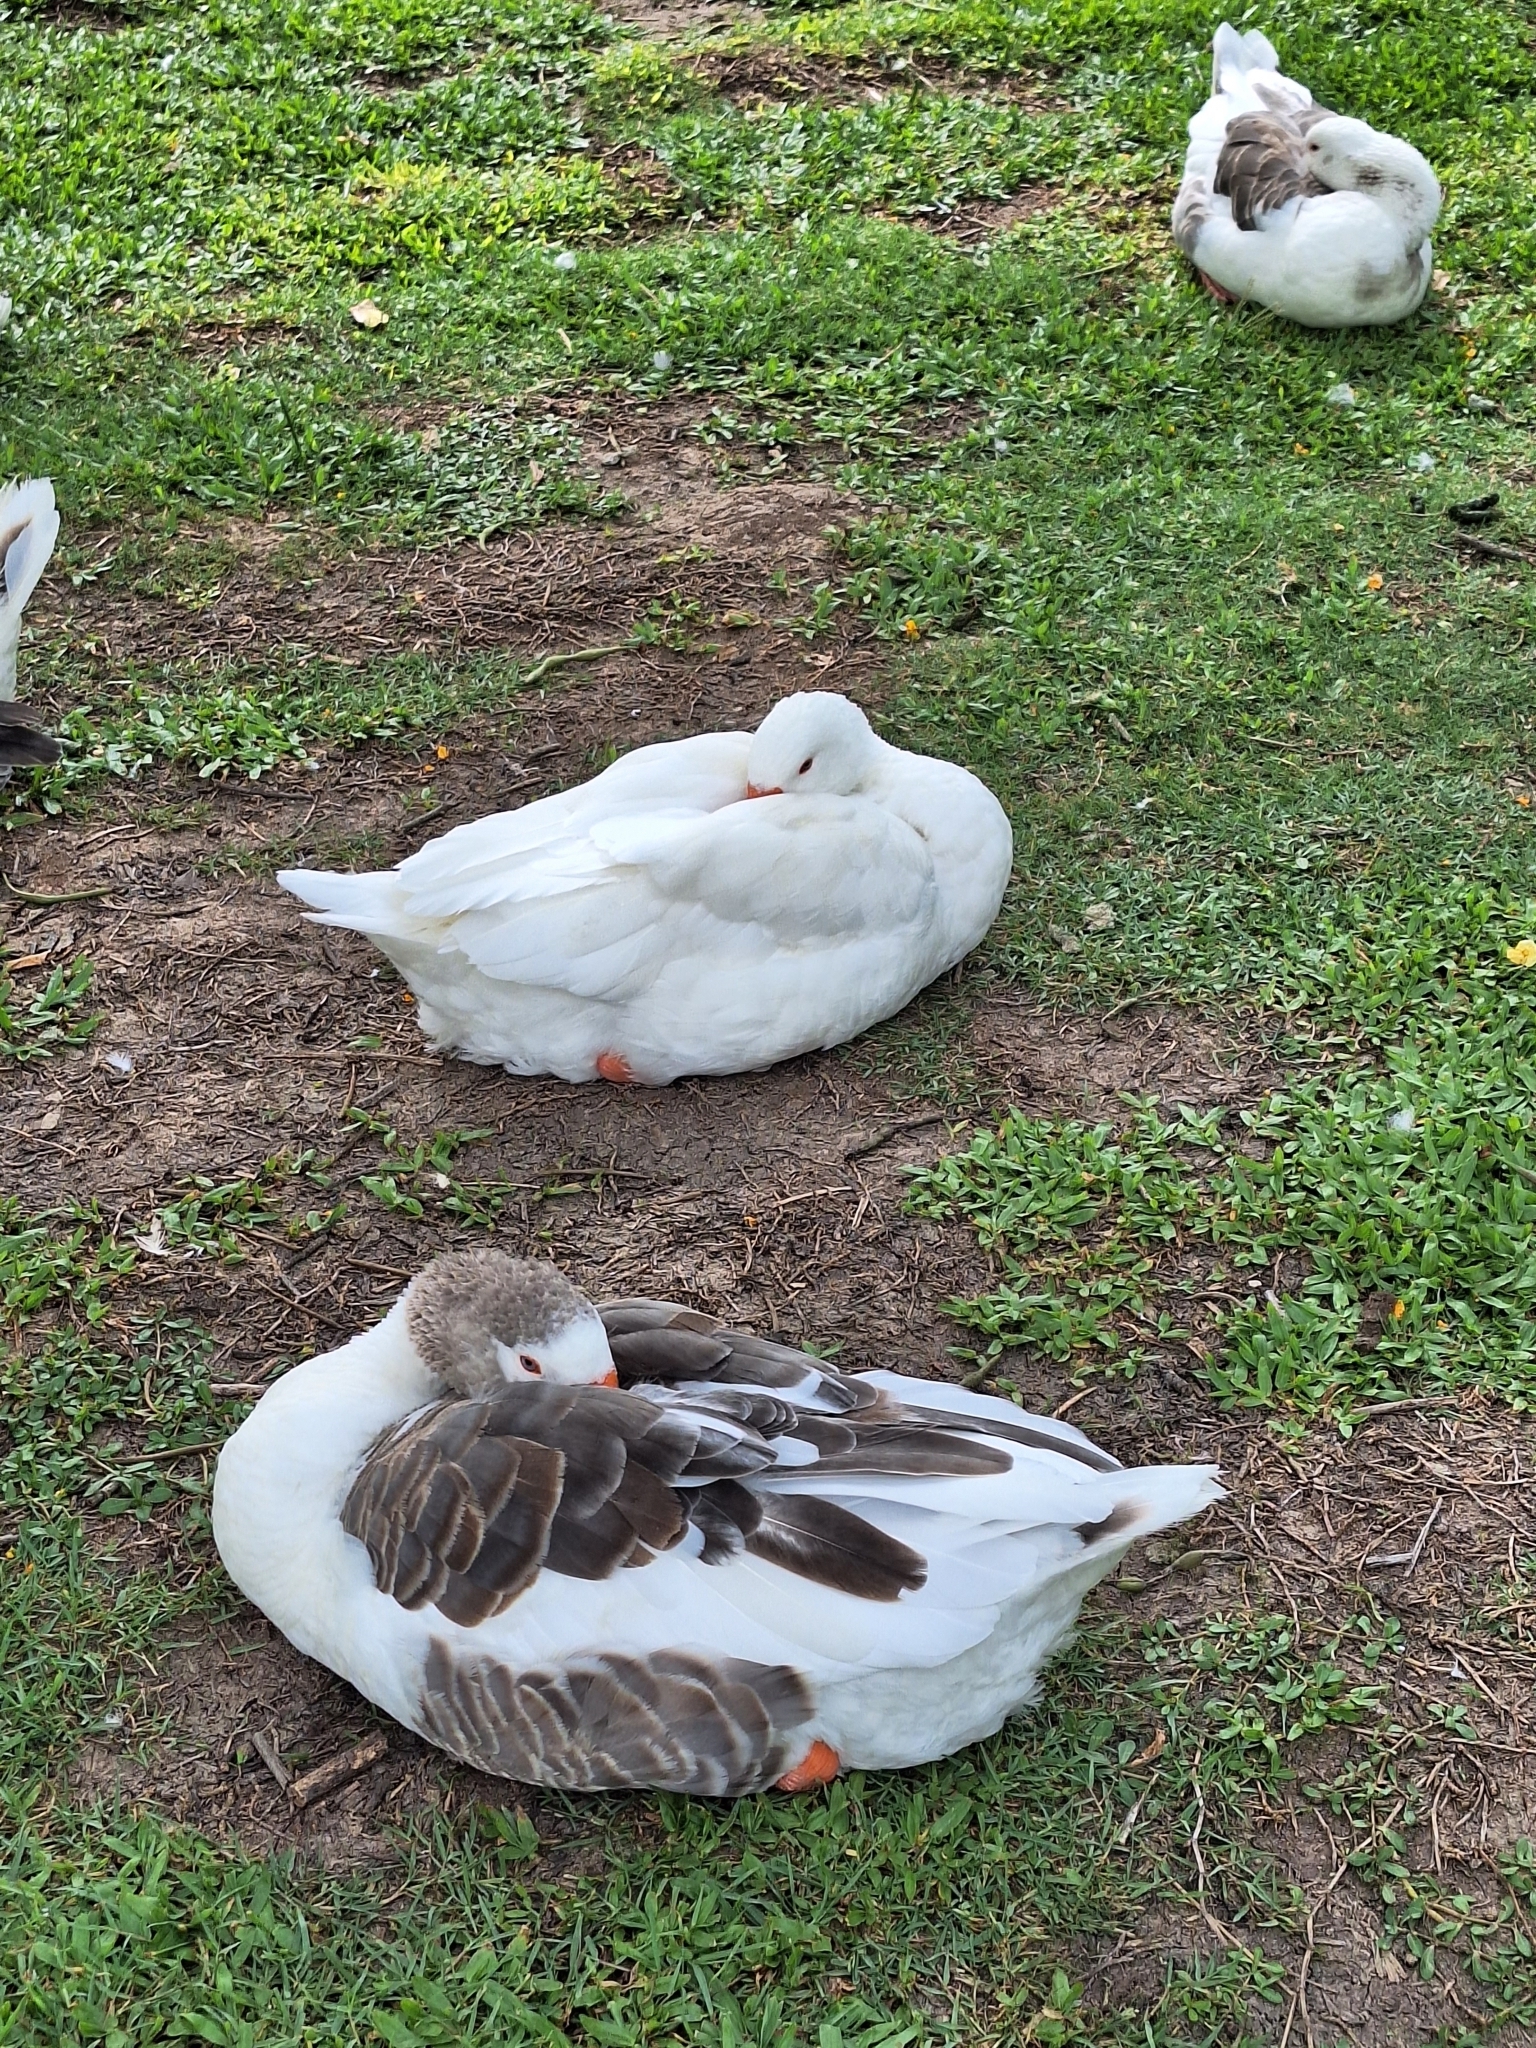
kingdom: Animalia
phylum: Chordata
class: Aves
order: Anseriformes
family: Anatidae
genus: Anser
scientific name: Anser anser
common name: Greylag goose
